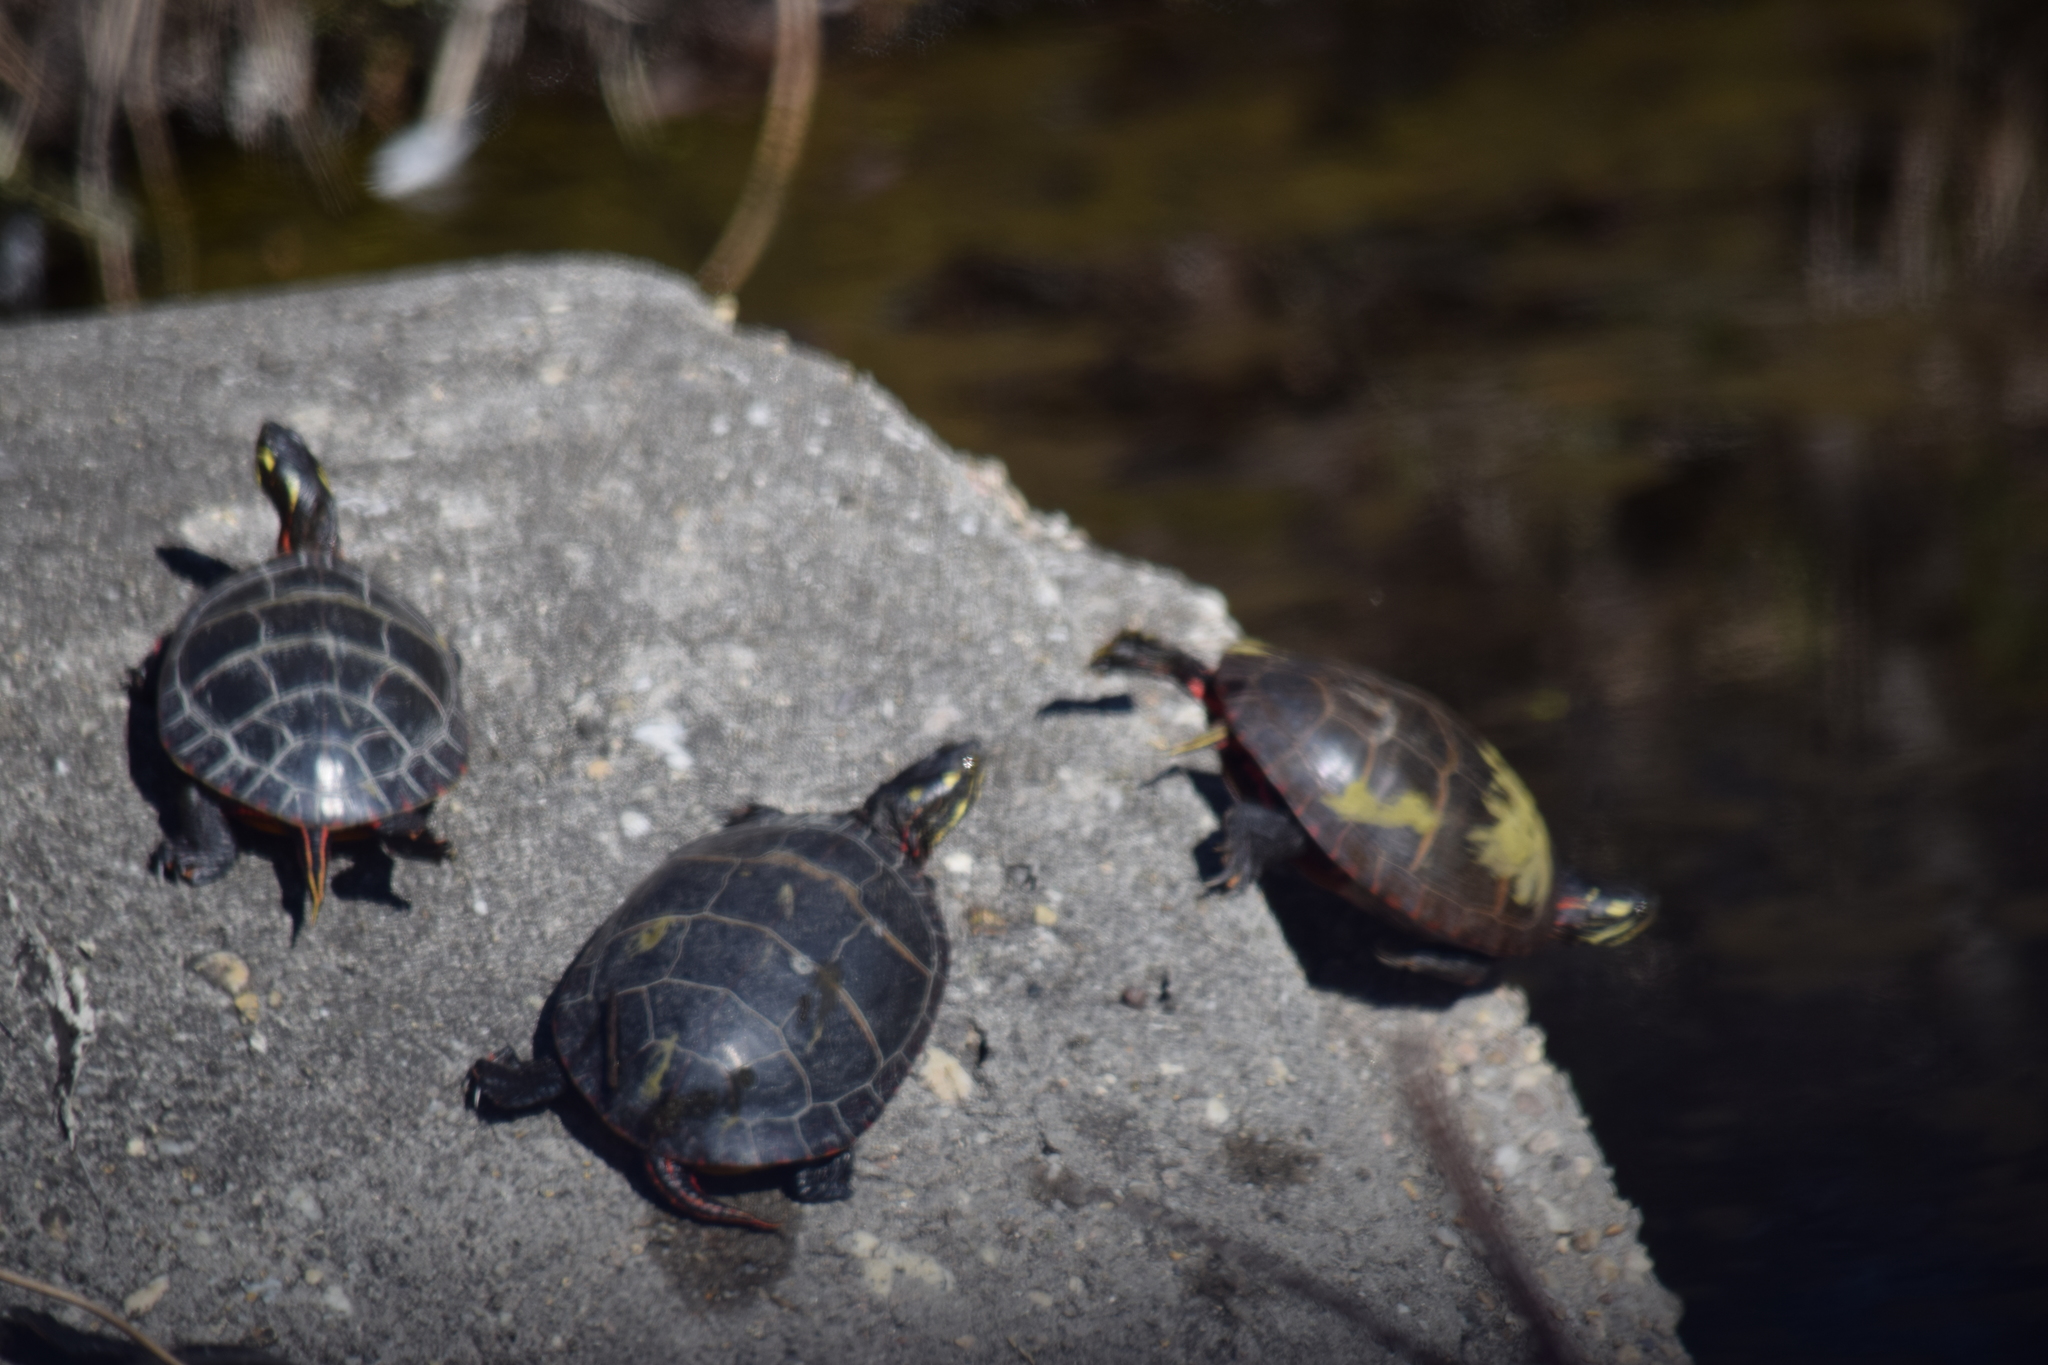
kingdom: Animalia
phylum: Chordata
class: Testudines
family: Emydidae
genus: Chrysemys
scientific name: Chrysemys picta
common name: Painted turtle
